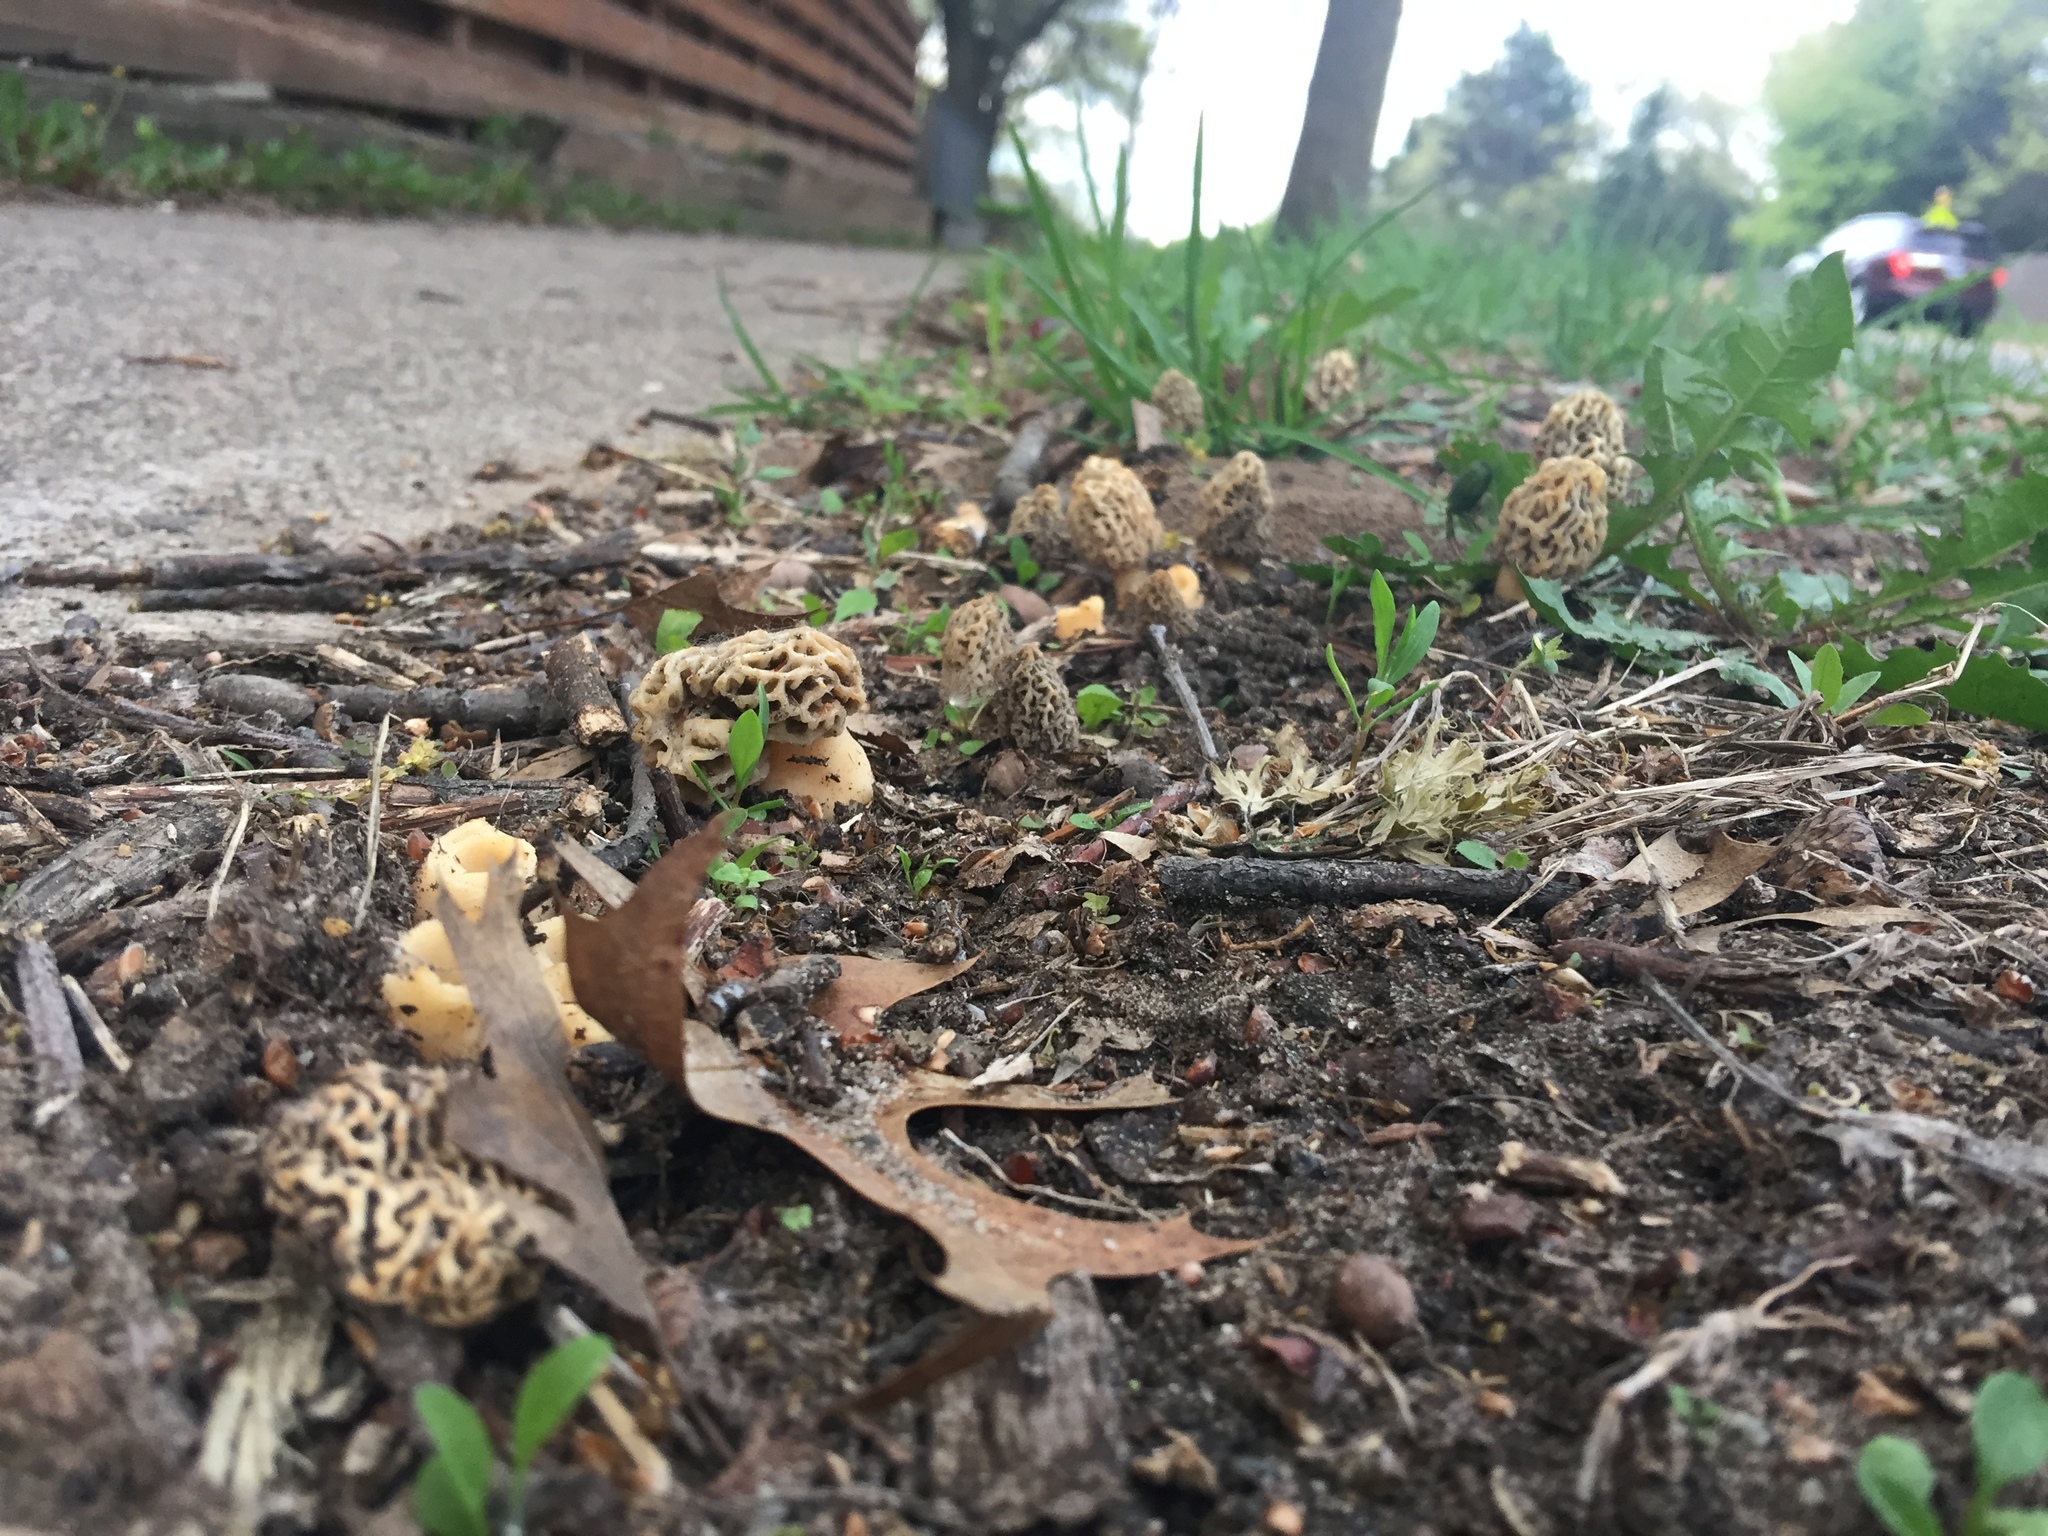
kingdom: Fungi
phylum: Ascomycota
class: Pezizomycetes
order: Pezizales
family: Morchellaceae
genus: Morchella
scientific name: Morchella
